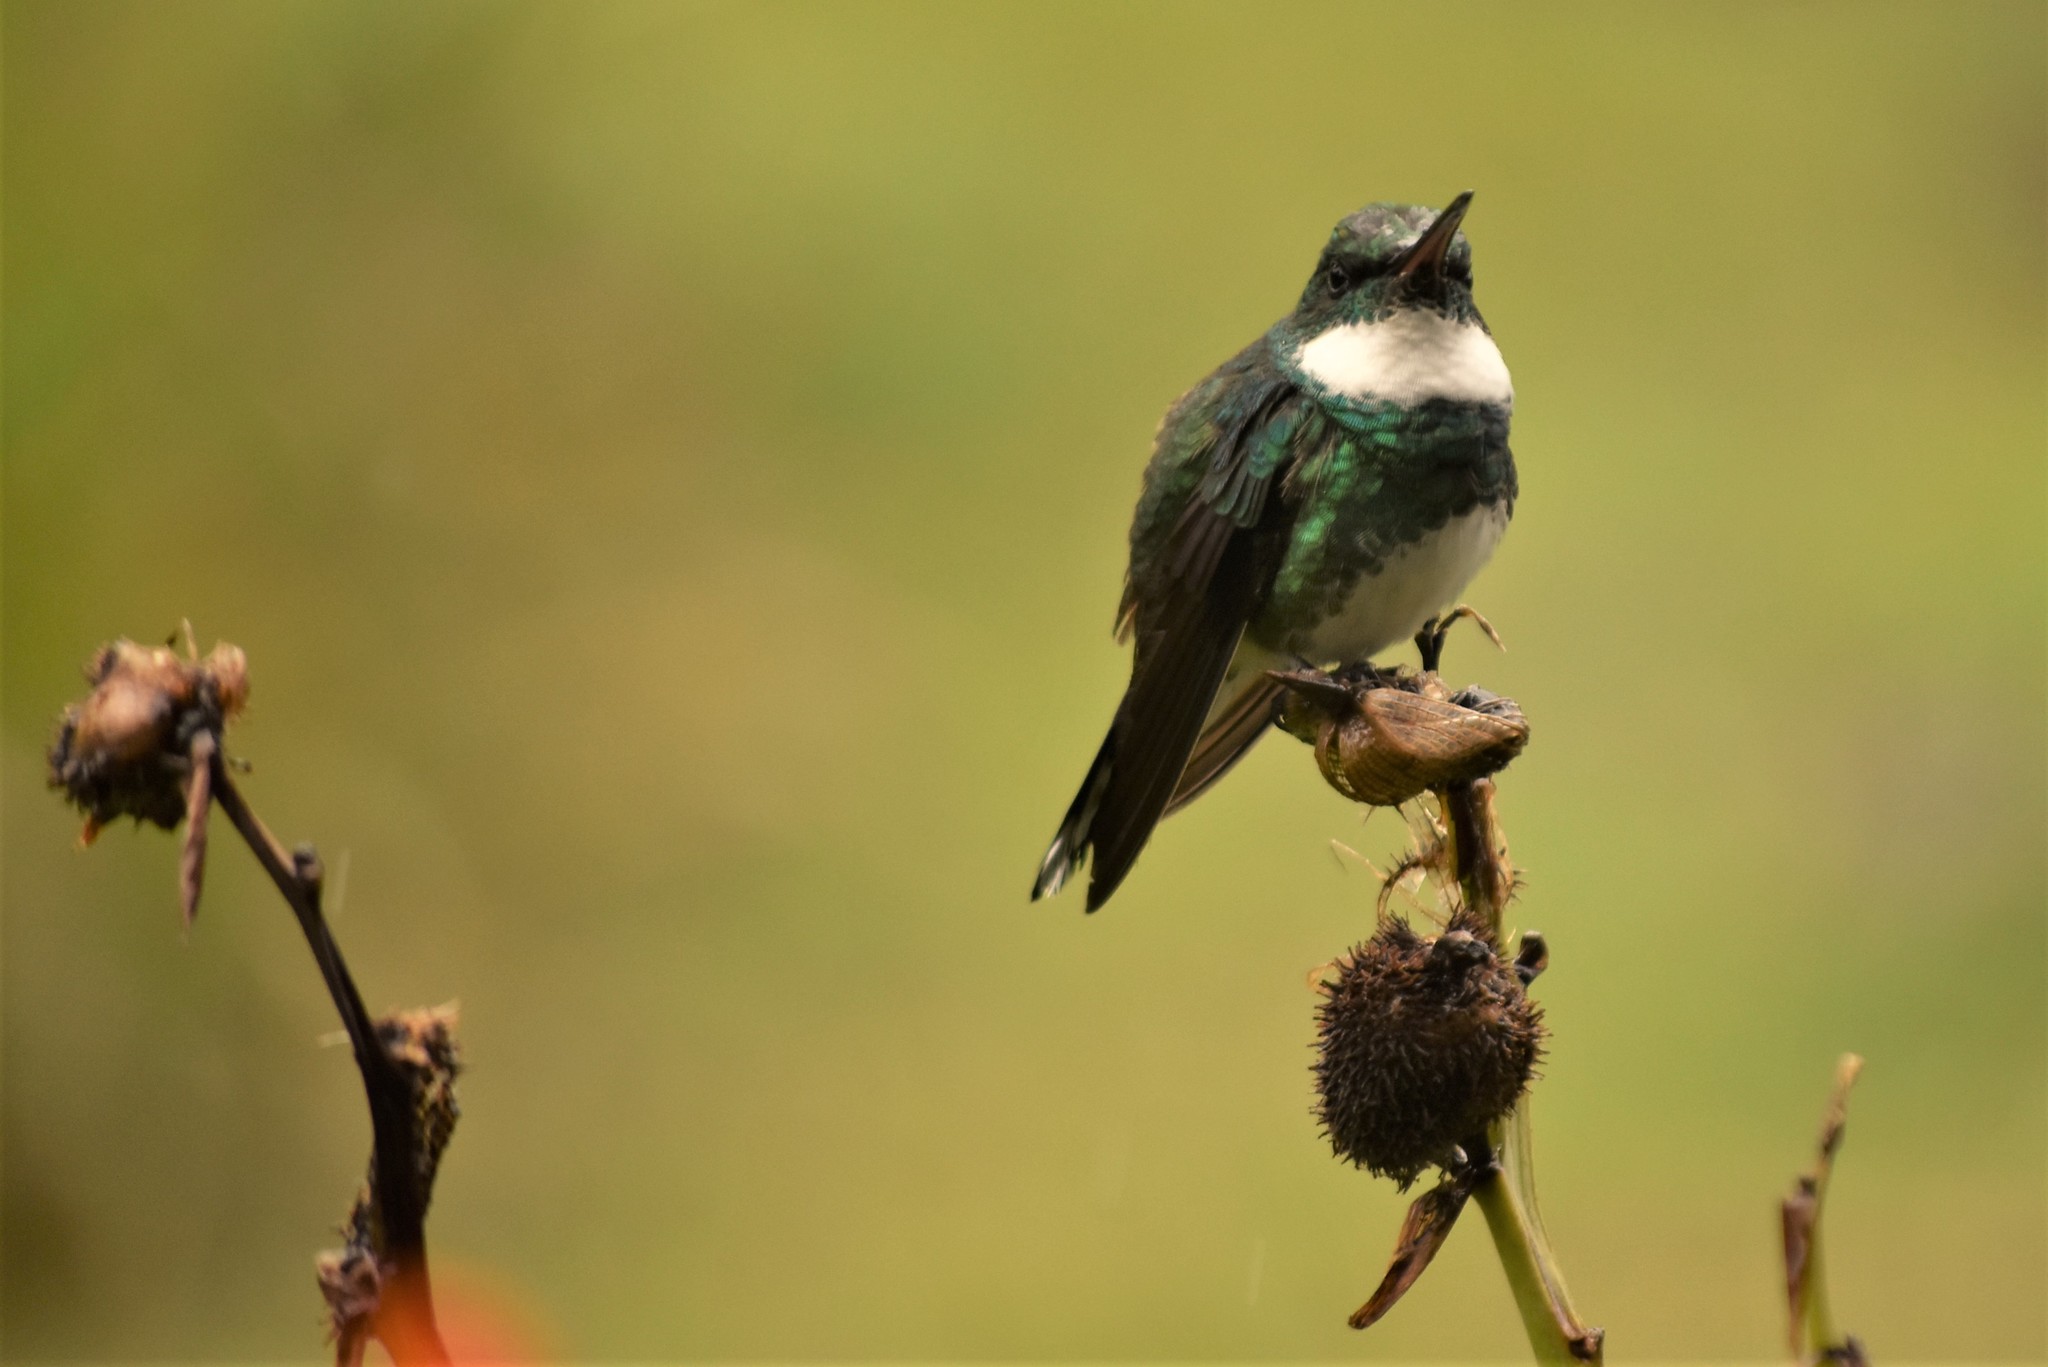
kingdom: Animalia
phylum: Chordata
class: Aves
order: Apodiformes
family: Trochilidae
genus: Leucochloris
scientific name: Leucochloris albicollis
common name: White-throated hummingbird
